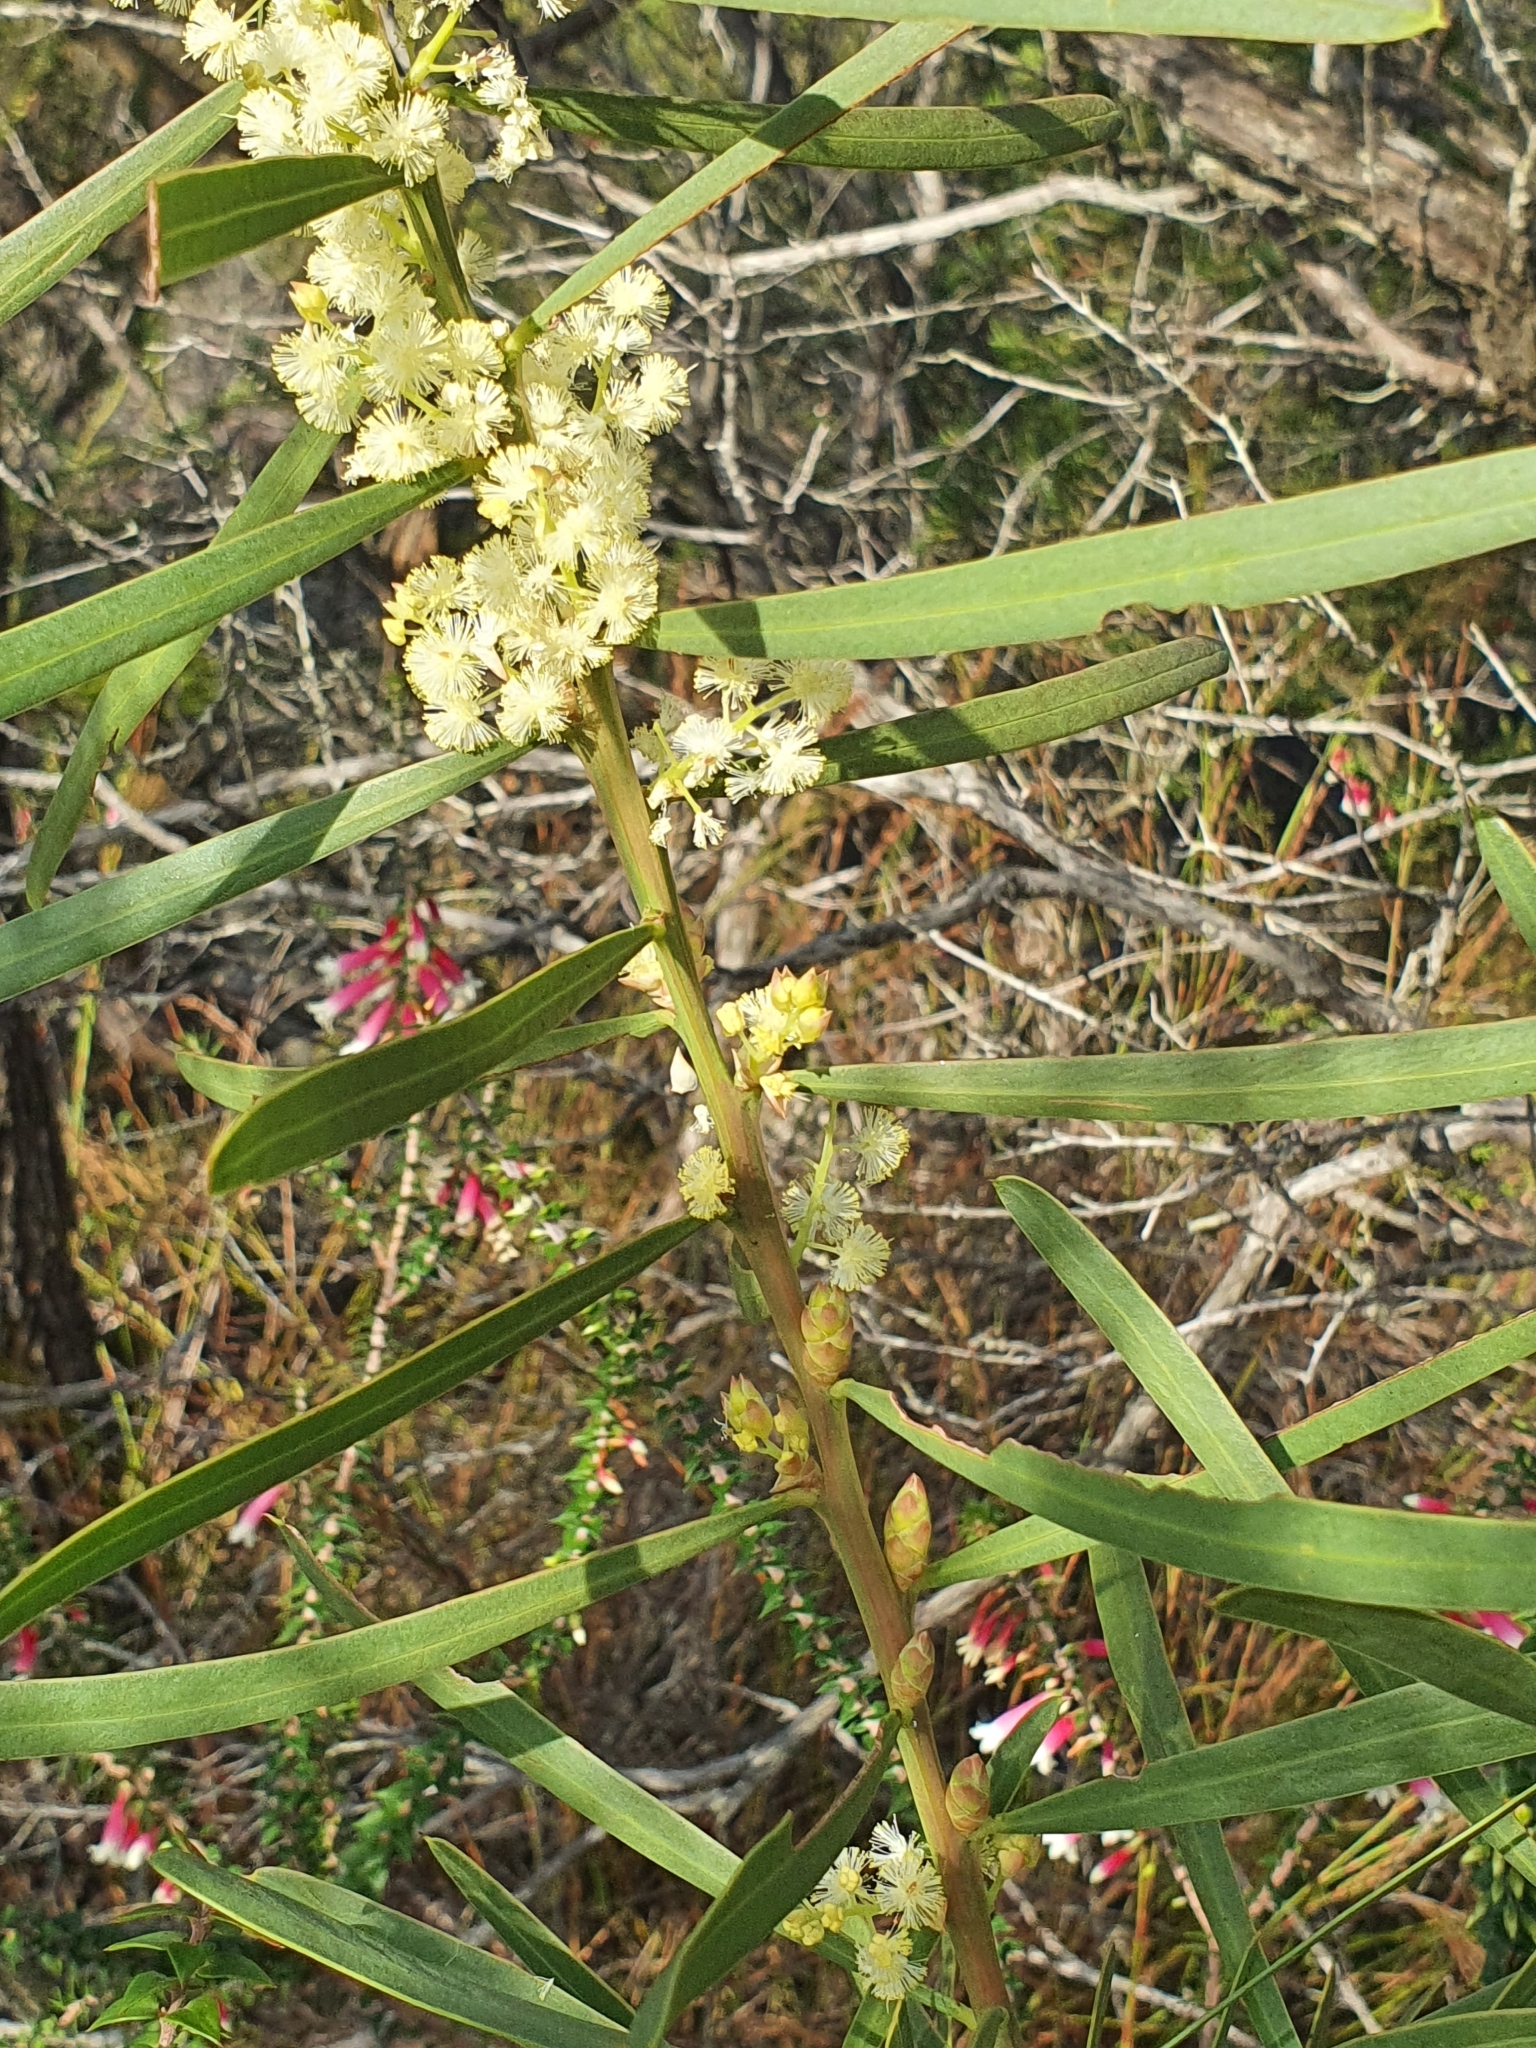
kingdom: Plantae
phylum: Tracheophyta
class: Magnoliopsida
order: Fabales
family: Fabaceae
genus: Acacia
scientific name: Acacia suaveolens
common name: Sweet acacia
